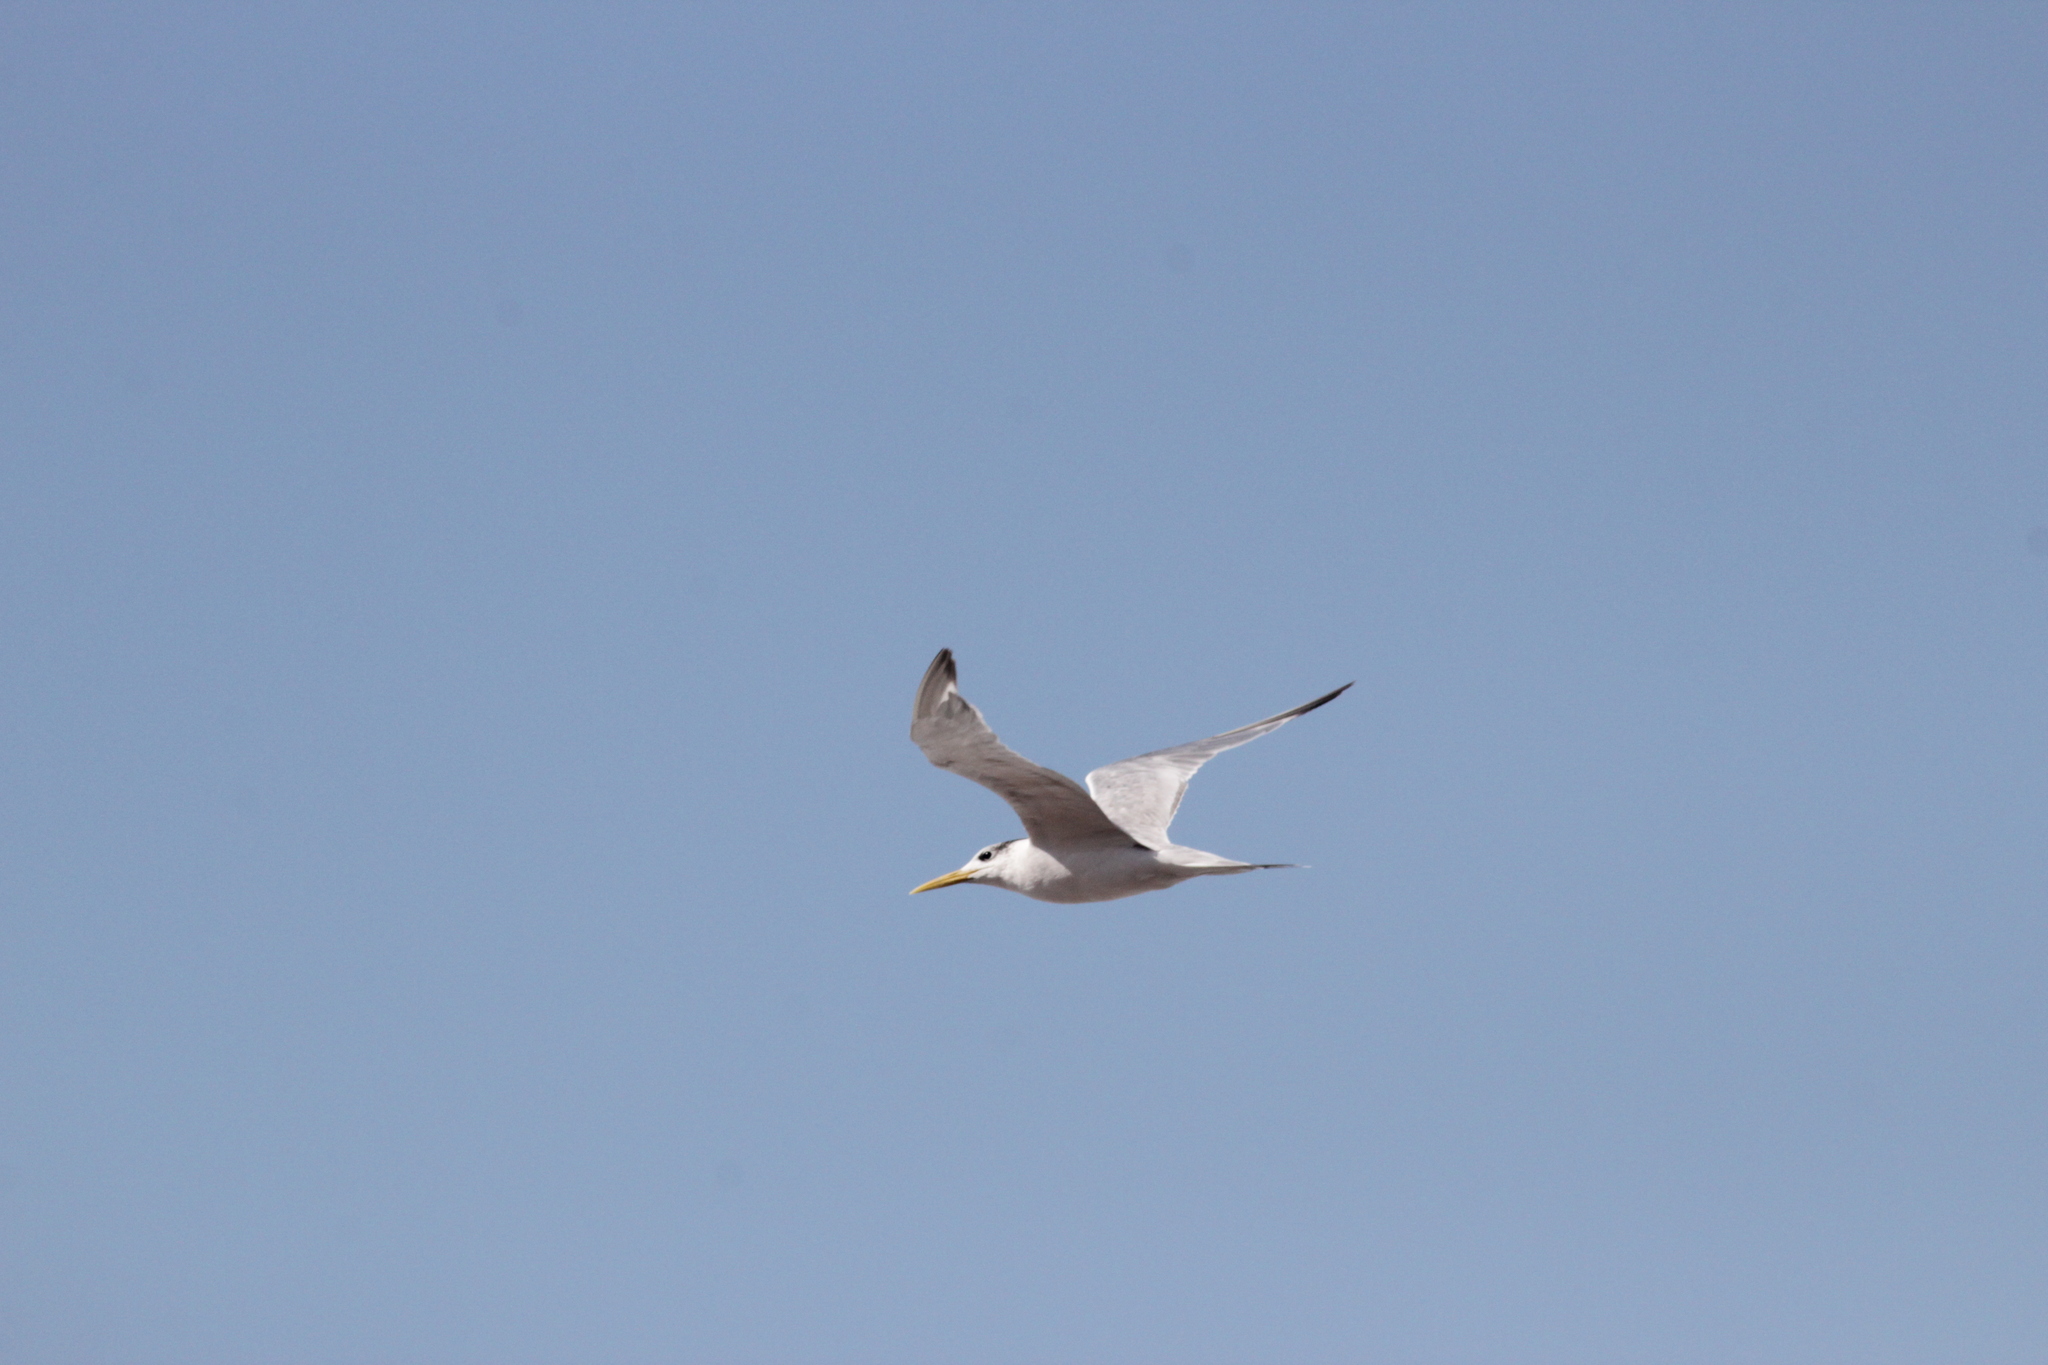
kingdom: Animalia
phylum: Chordata
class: Aves
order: Charadriiformes
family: Laridae
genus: Thalasseus
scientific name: Thalasseus bergii
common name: Greater crested tern
